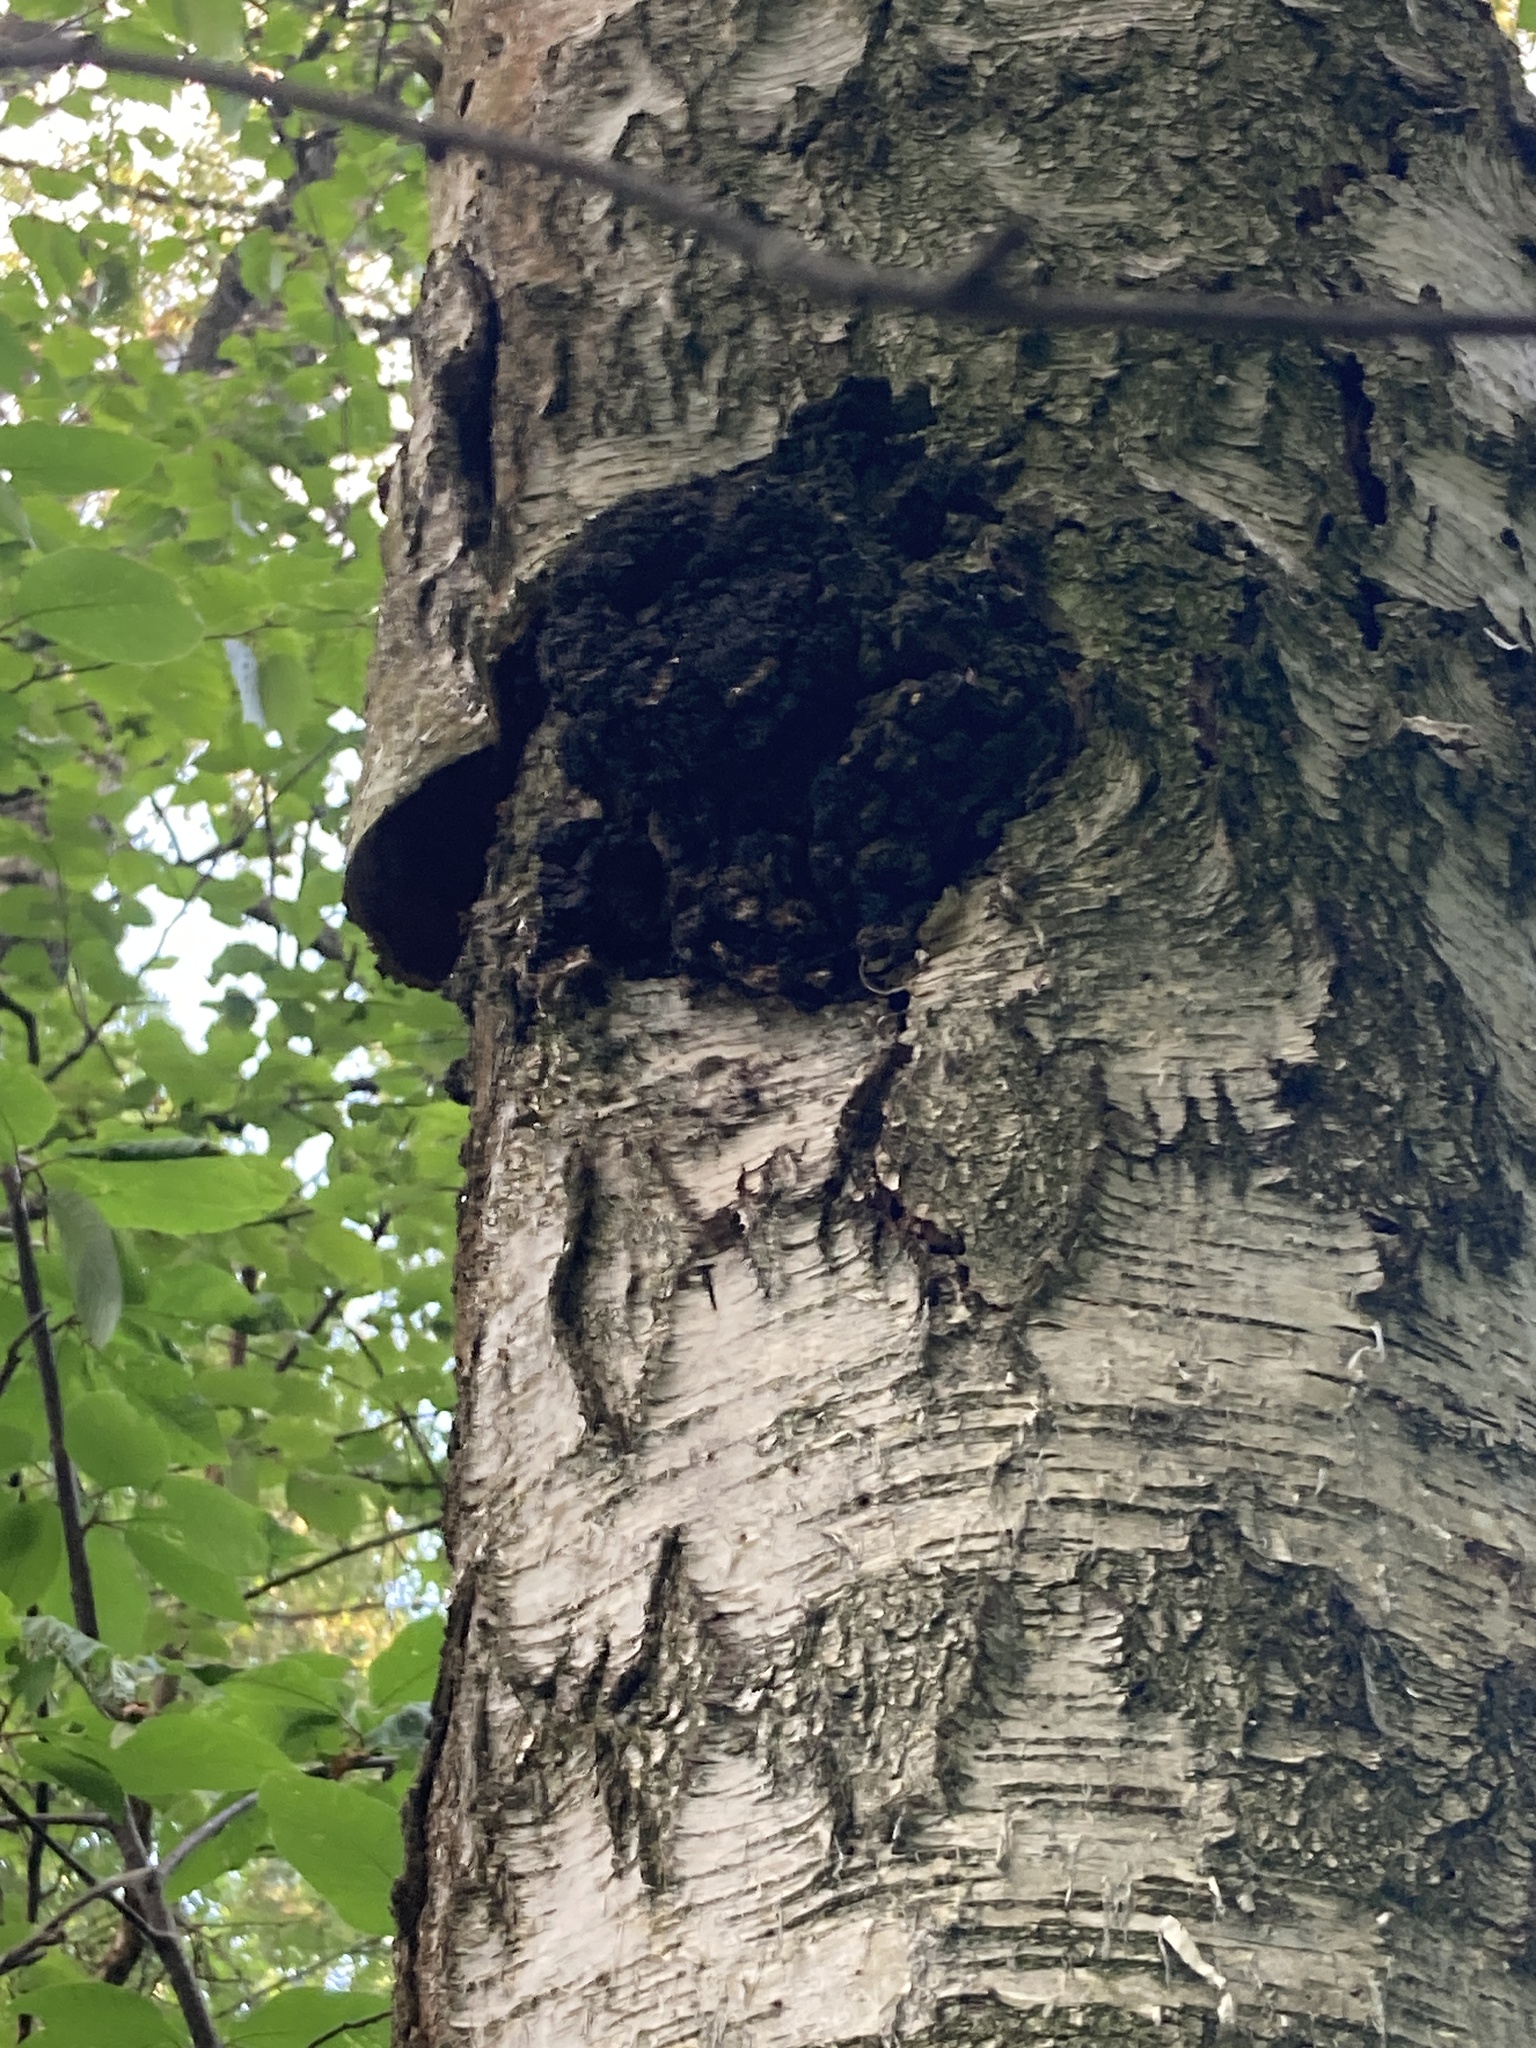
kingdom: Fungi
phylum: Basidiomycota
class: Agaricomycetes
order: Hymenochaetales
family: Hymenochaetaceae
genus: Inonotus
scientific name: Inonotus obliquus
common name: Chaga
